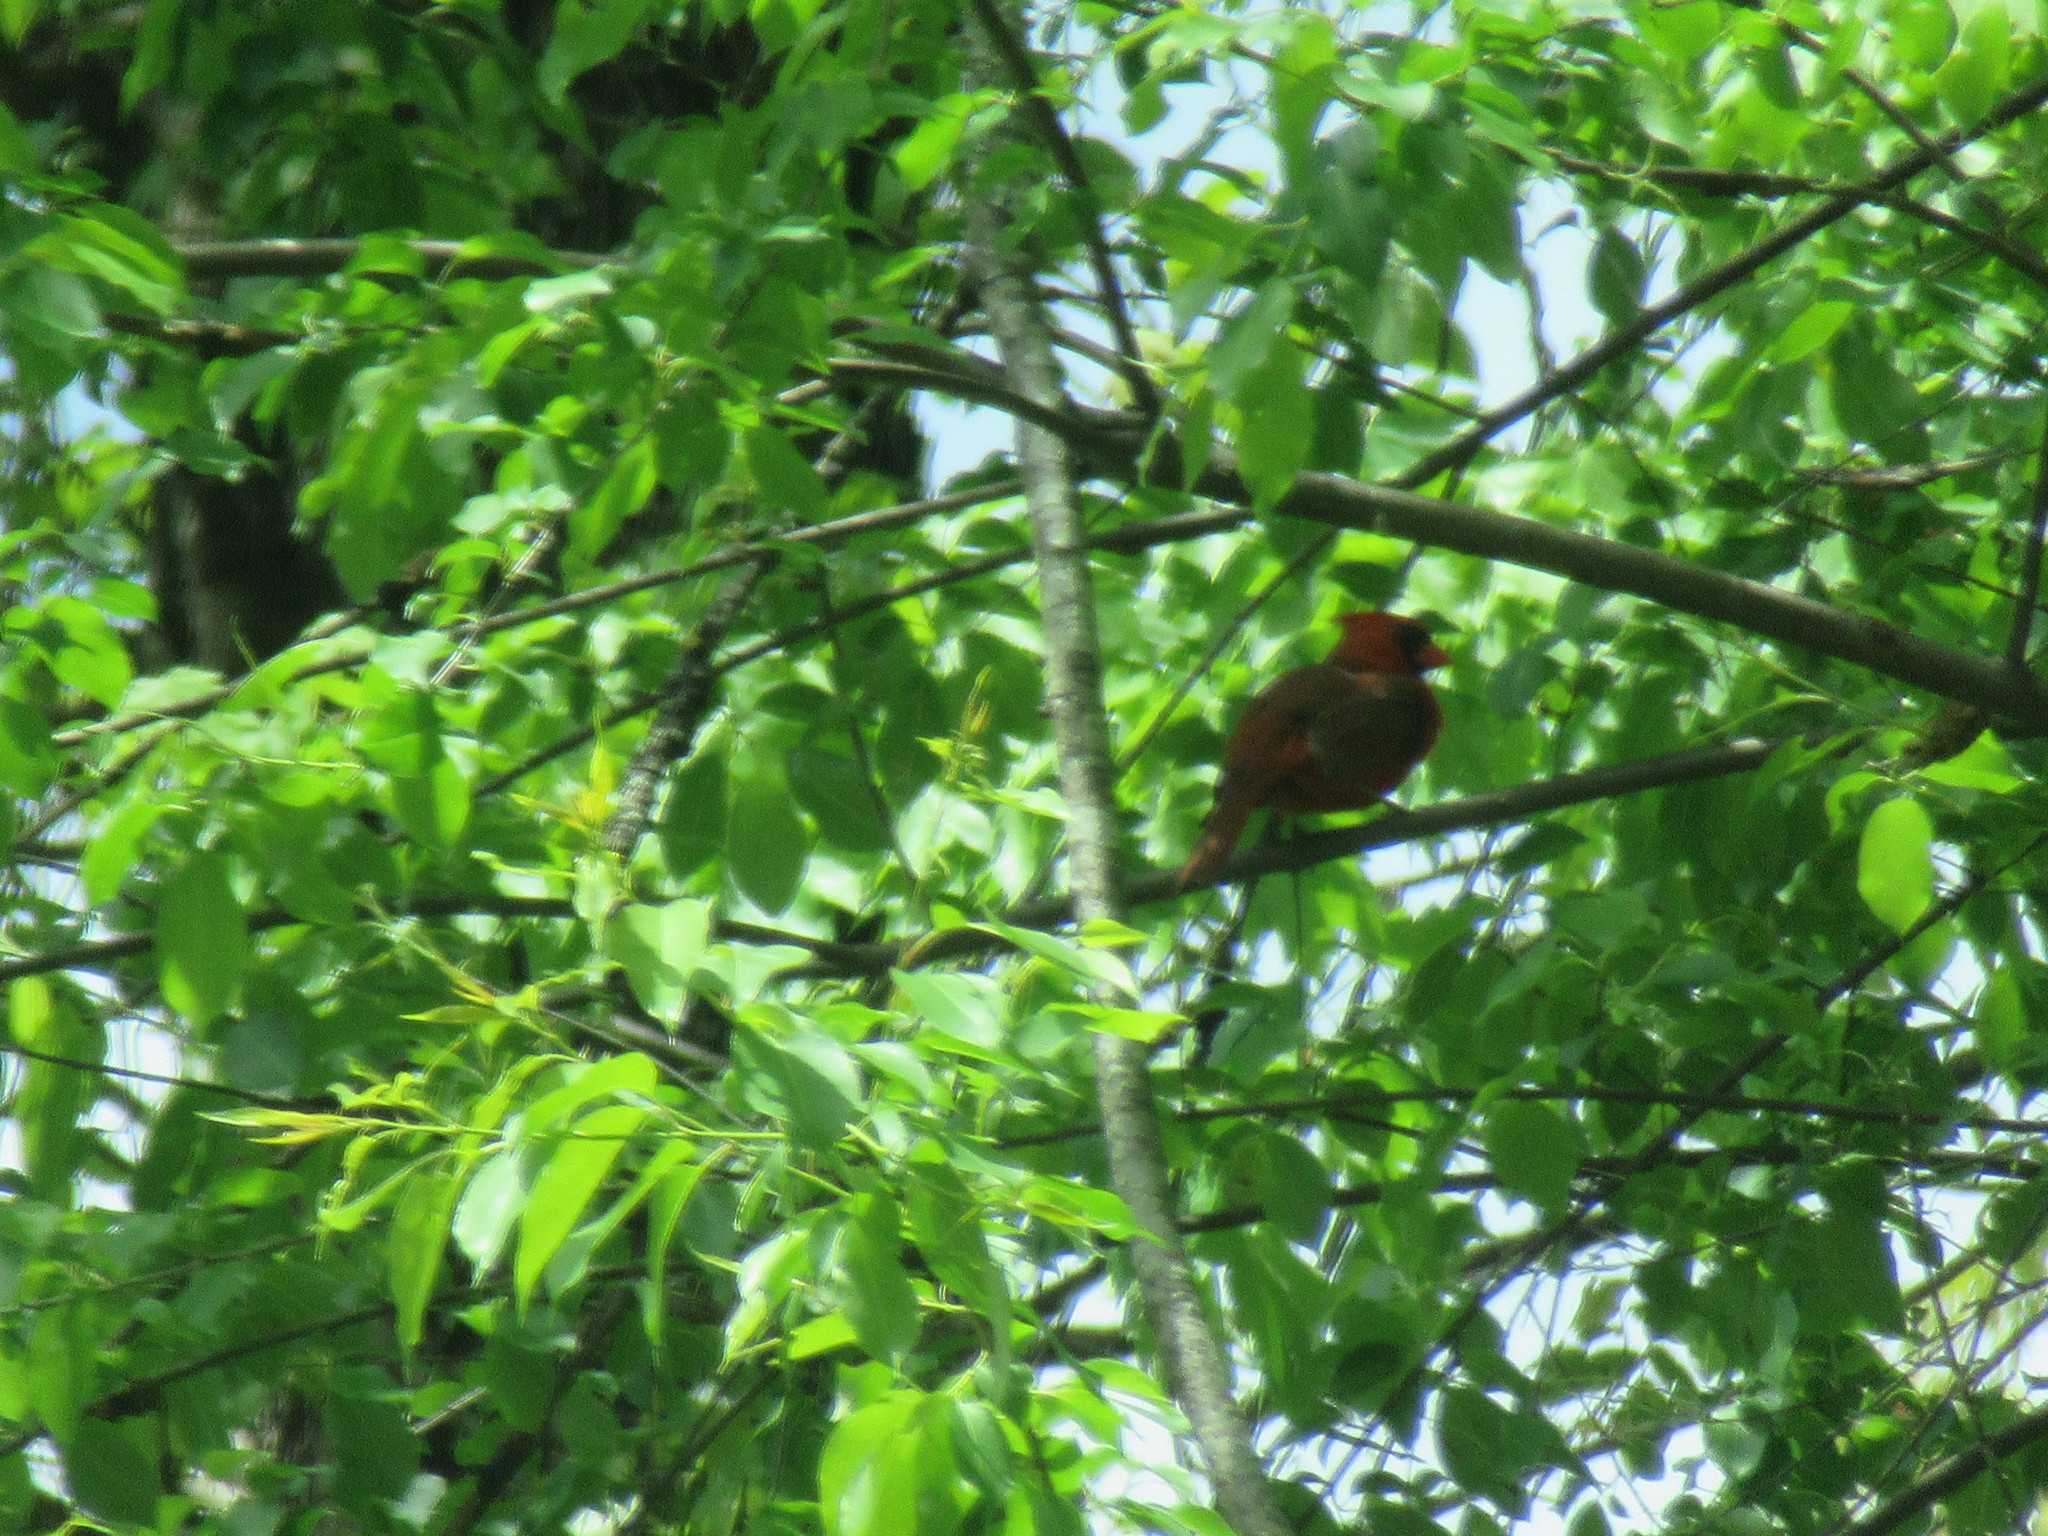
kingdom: Animalia
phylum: Chordata
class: Aves
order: Passeriformes
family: Cardinalidae
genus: Cardinalis
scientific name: Cardinalis cardinalis
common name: Northern cardinal
